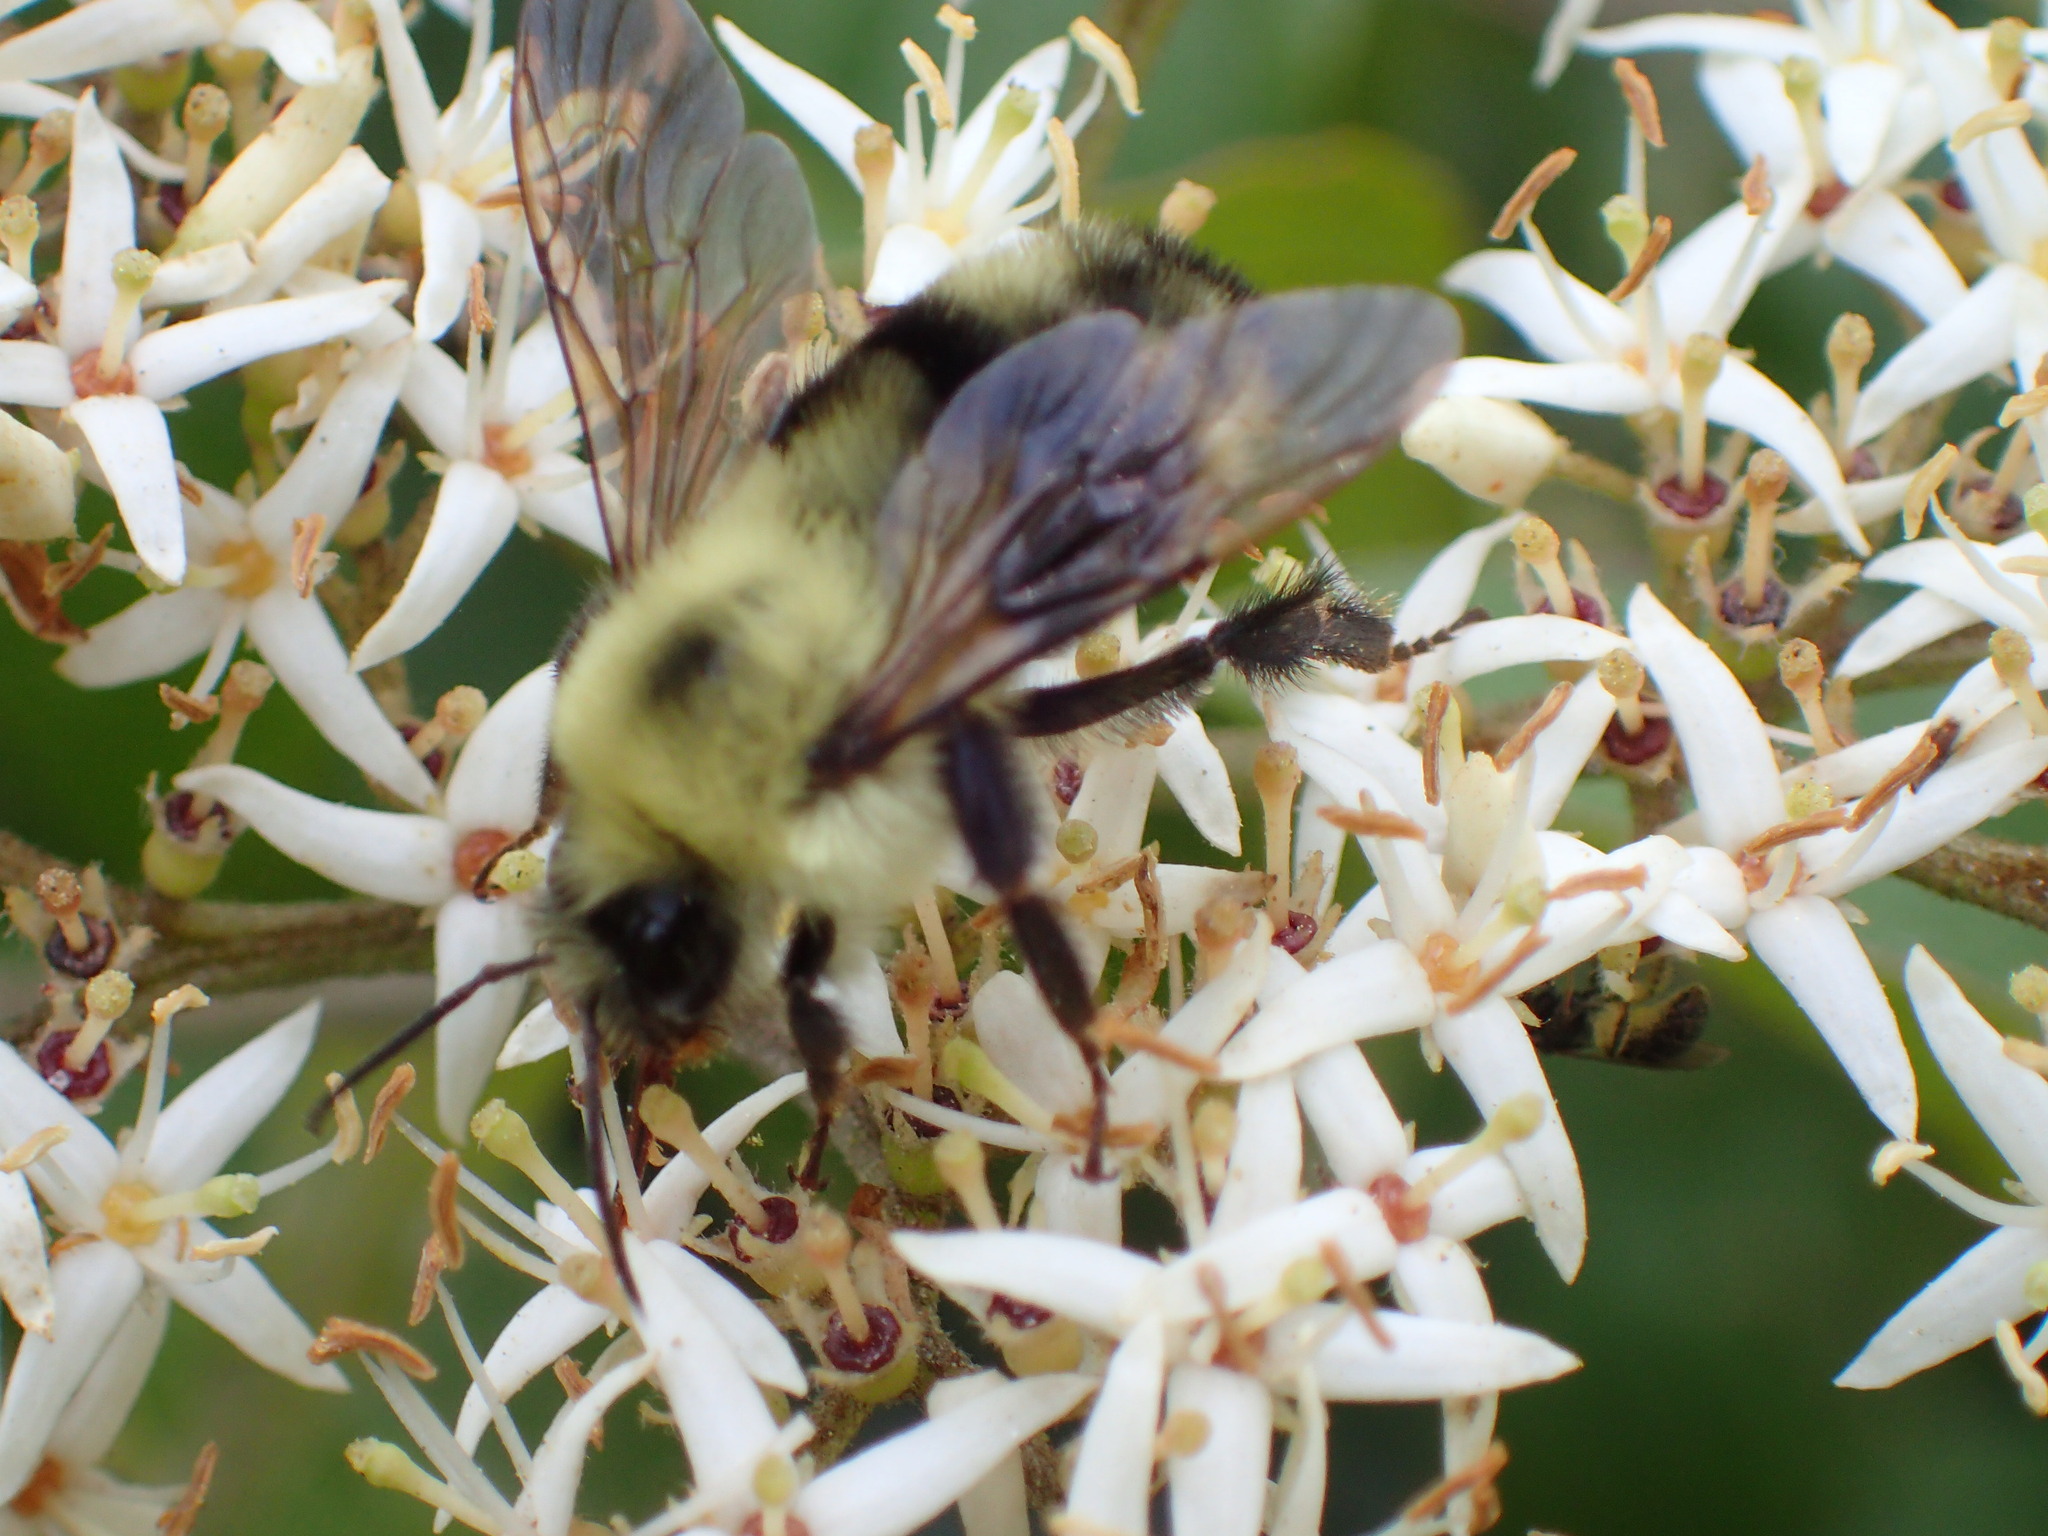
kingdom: Animalia
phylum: Arthropoda
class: Insecta
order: Hymenoptera
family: Apidae
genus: Bombus
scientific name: Bombus bimaculatus
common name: Two-spotted bumble bee
